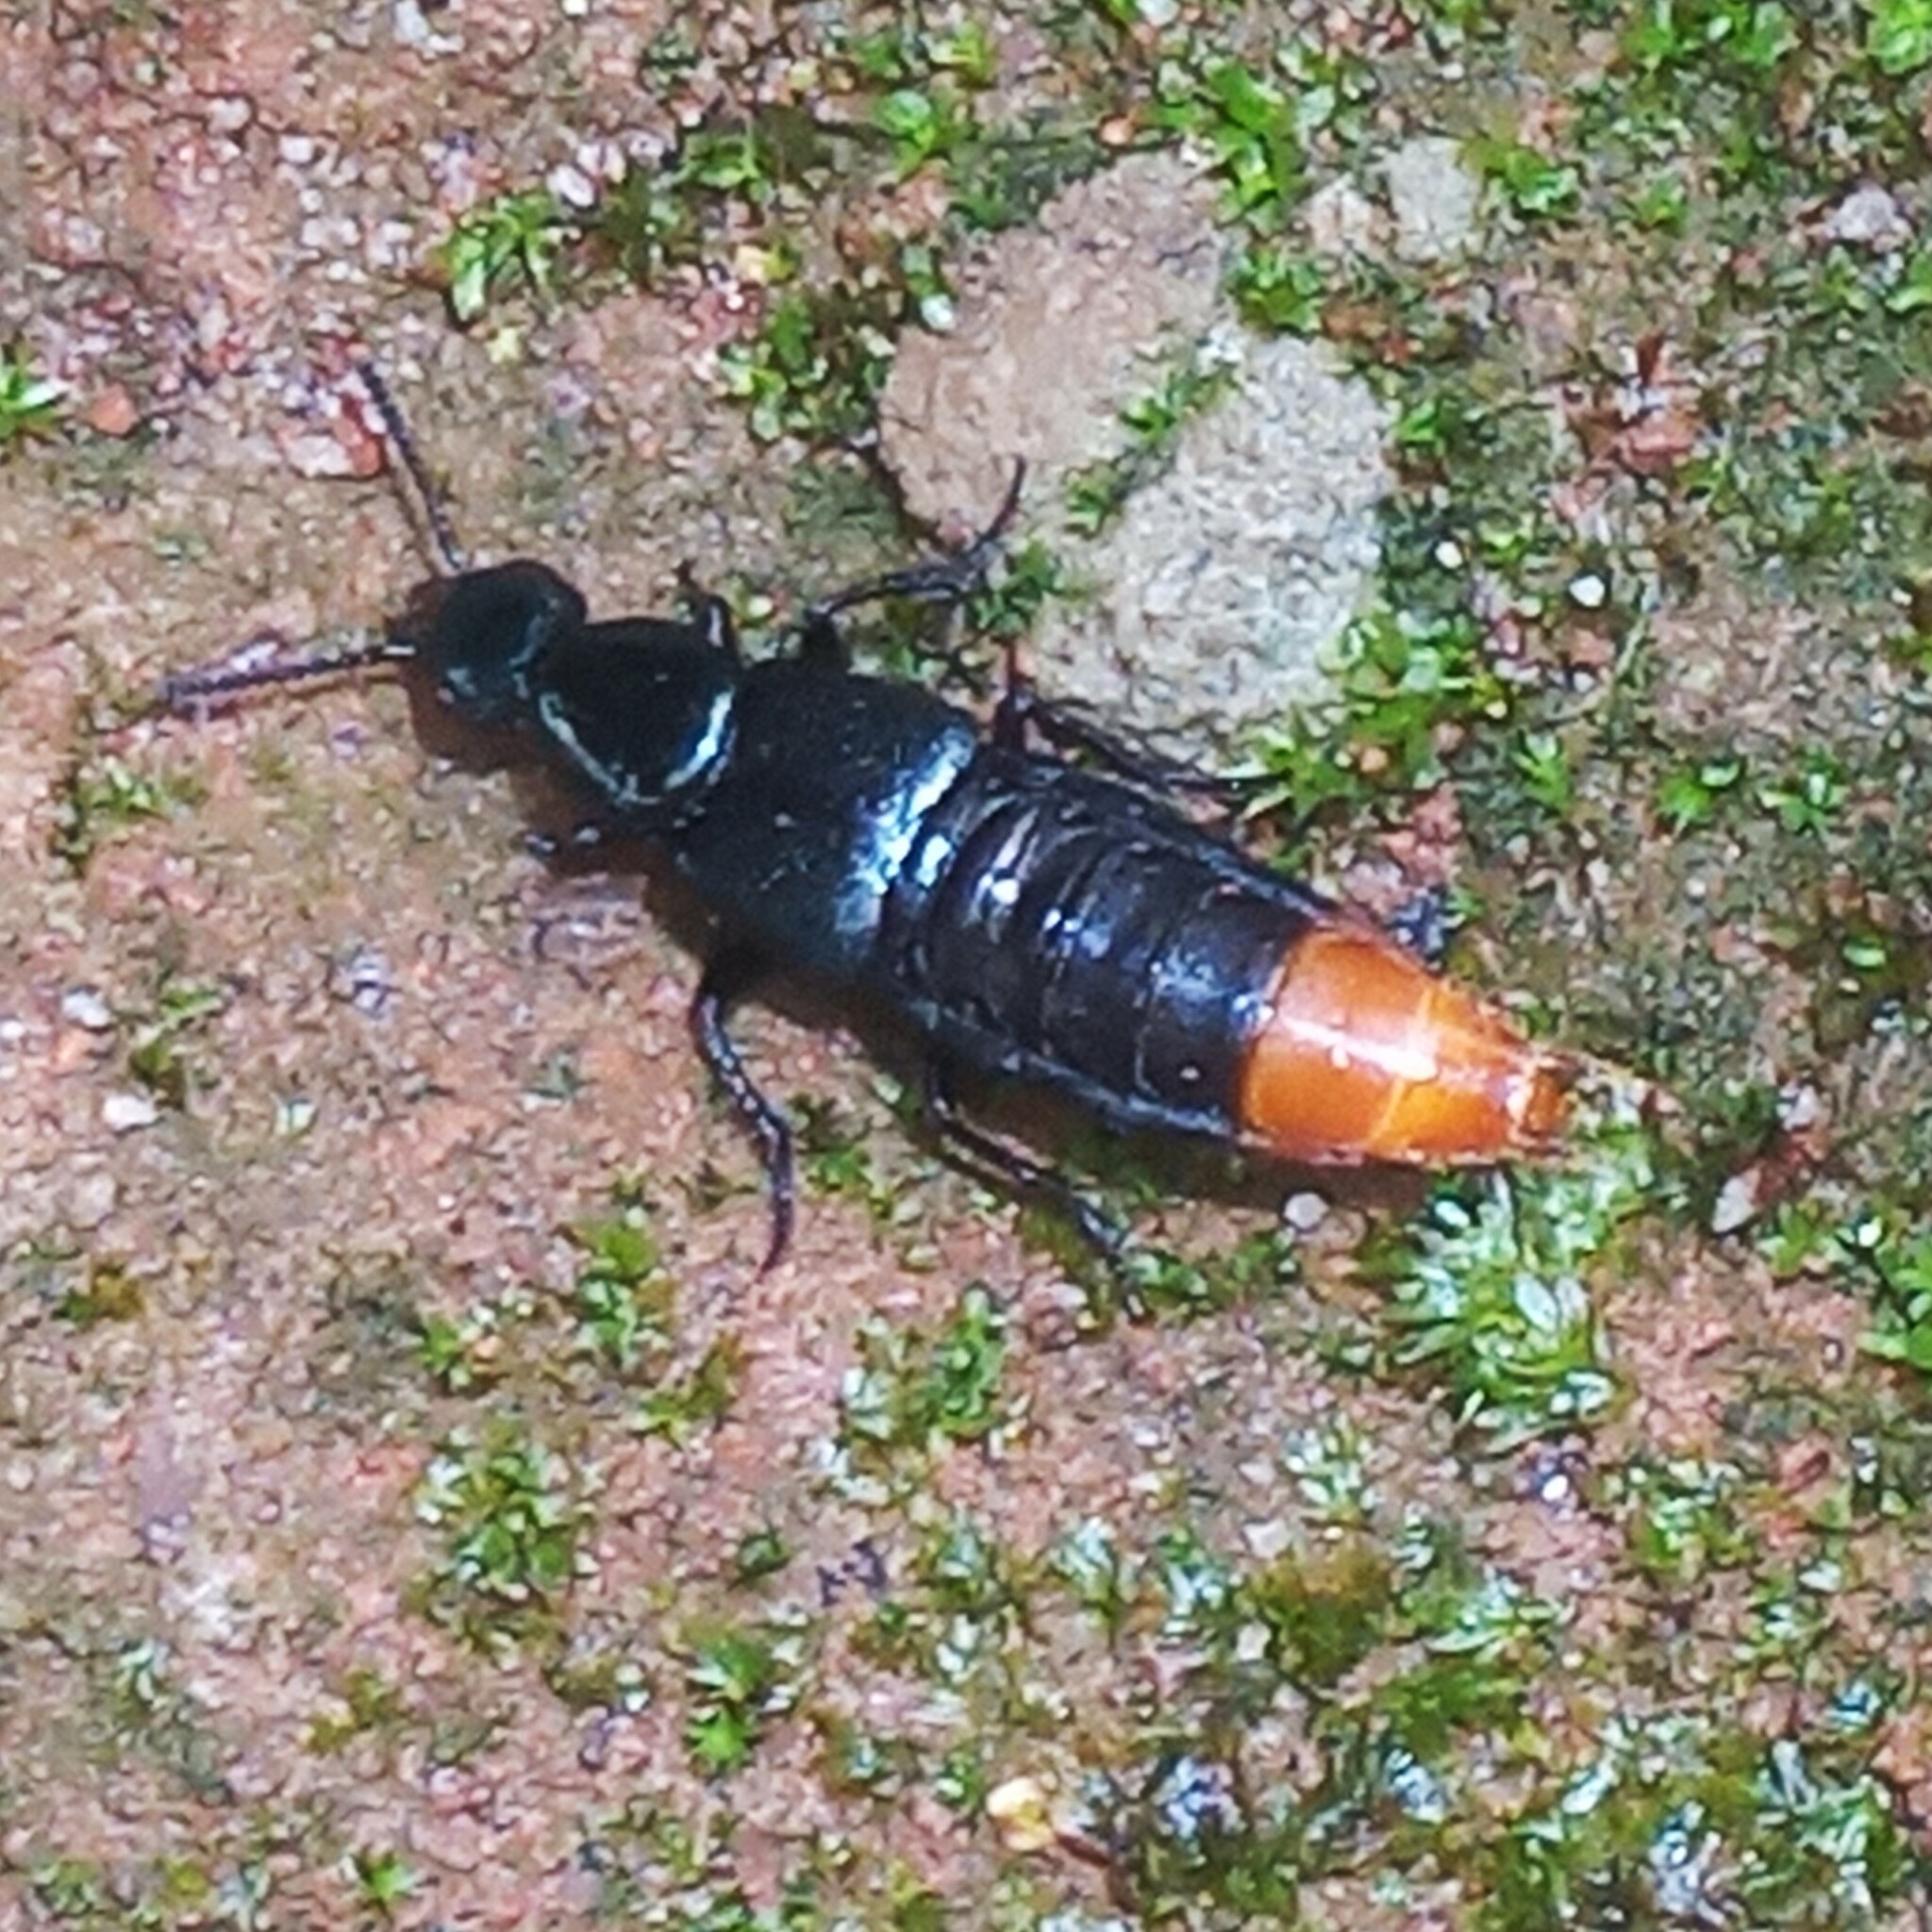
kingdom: Animalia
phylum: Arthropoda
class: Insecta
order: Coleoptera
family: Staphylinidae
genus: Xenopygus
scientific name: Xenopygus analis
